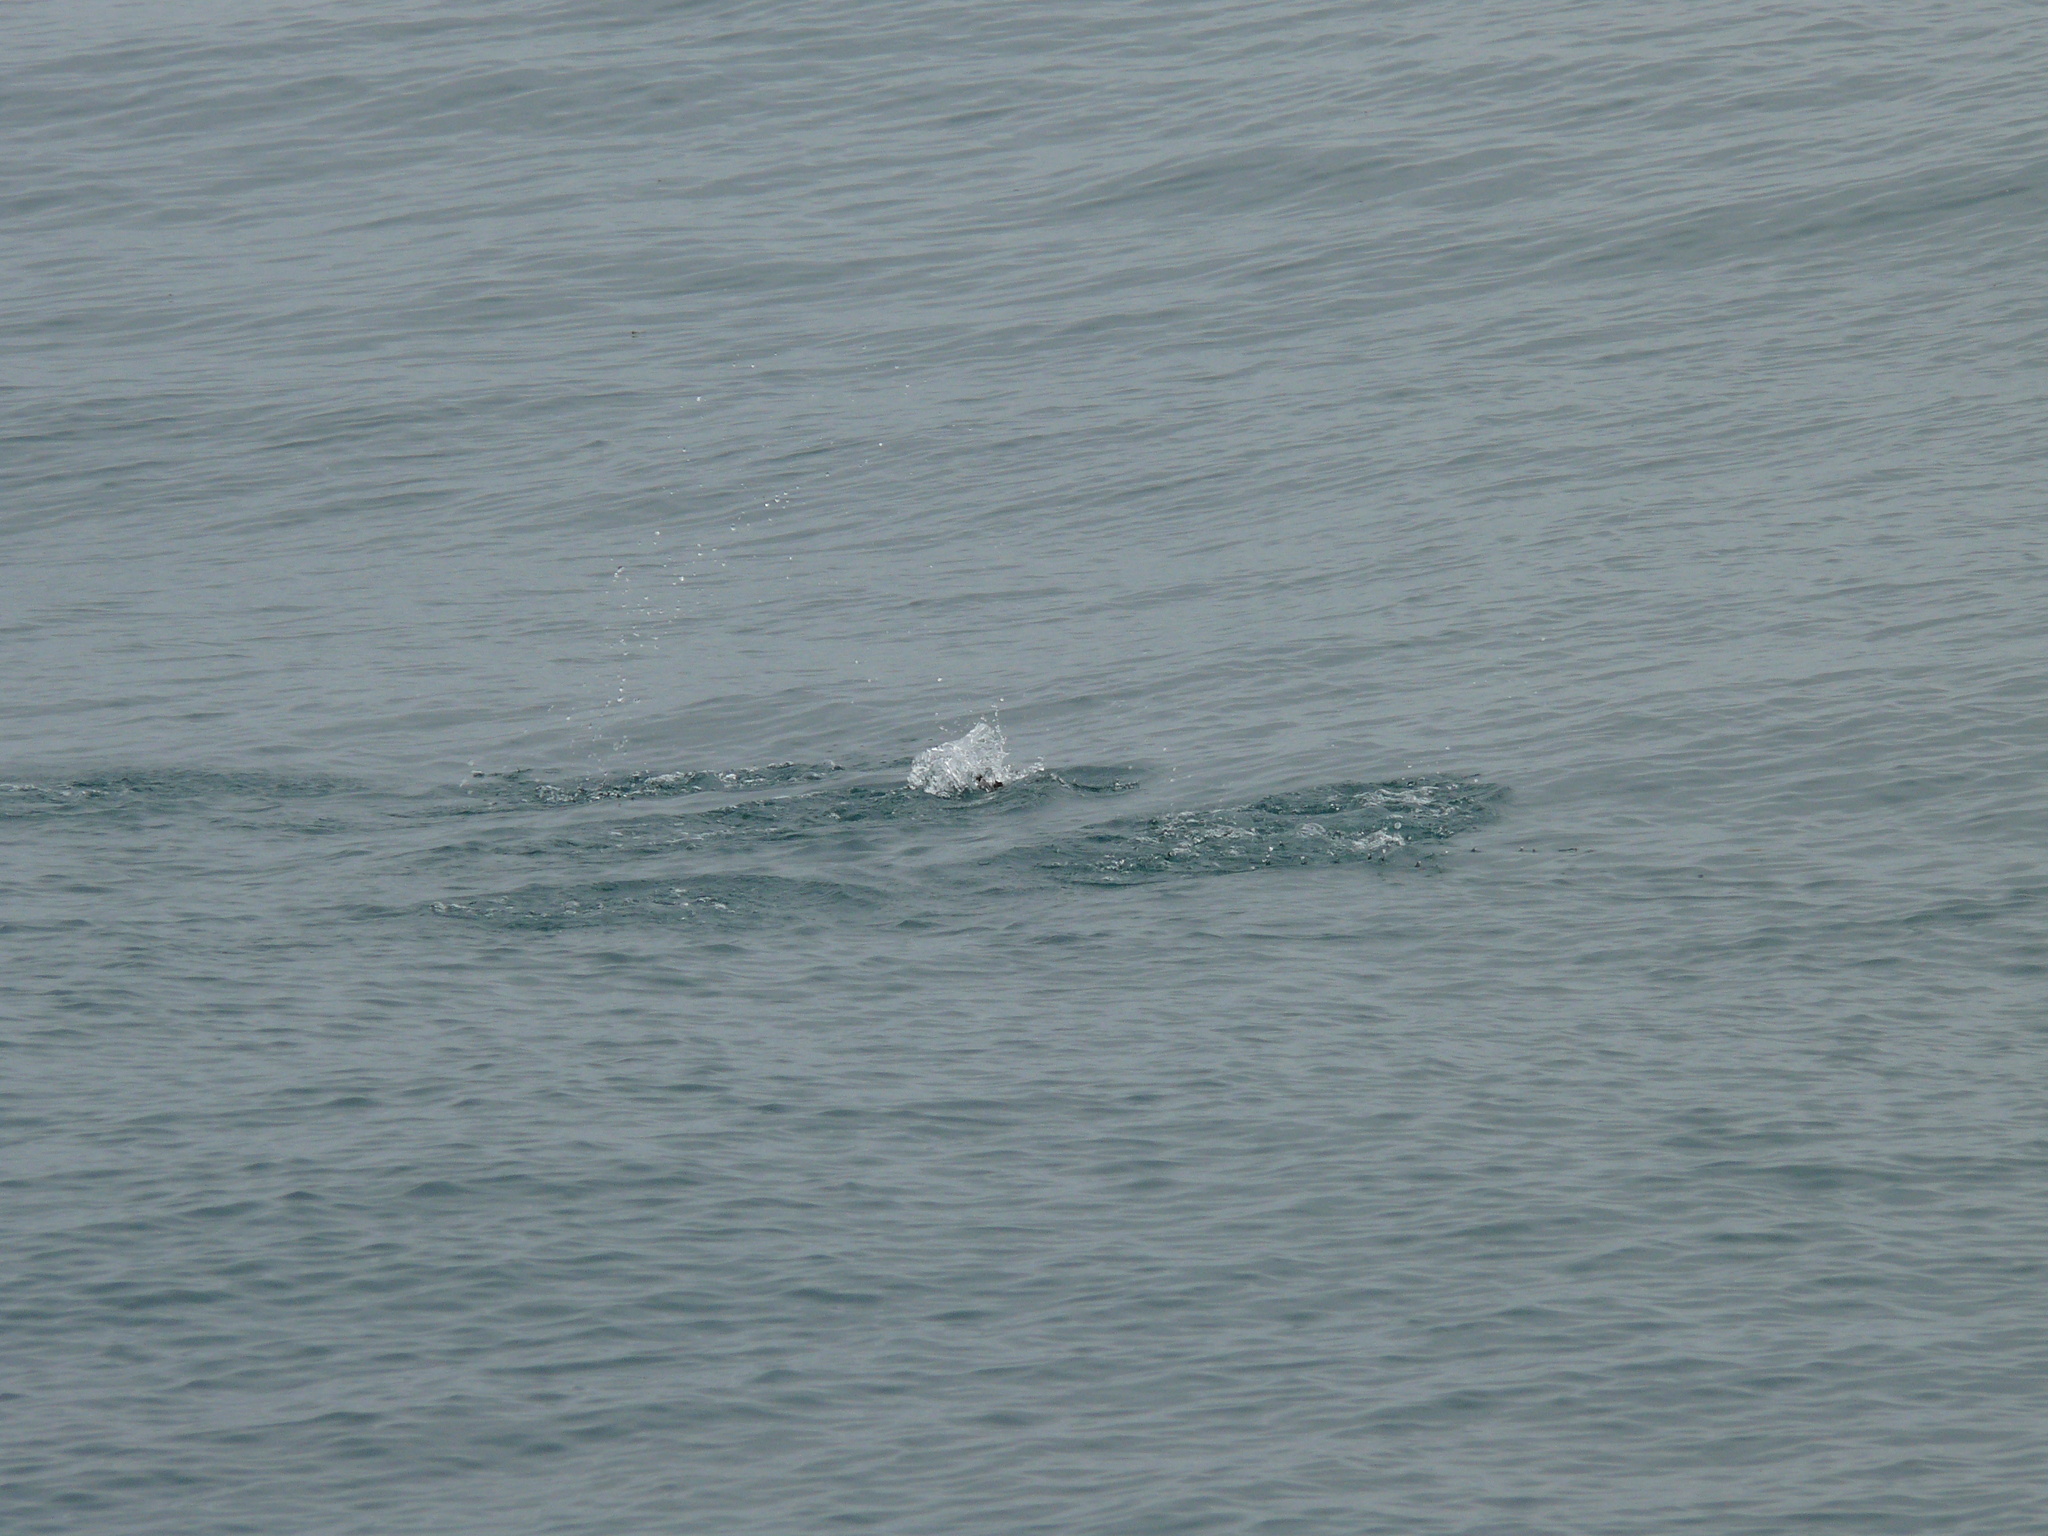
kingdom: Animalia
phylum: Chordata
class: Aves
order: Charadriiformes
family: Alcidae
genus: Uria
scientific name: Uria lomvia
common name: Thick-billed murre
